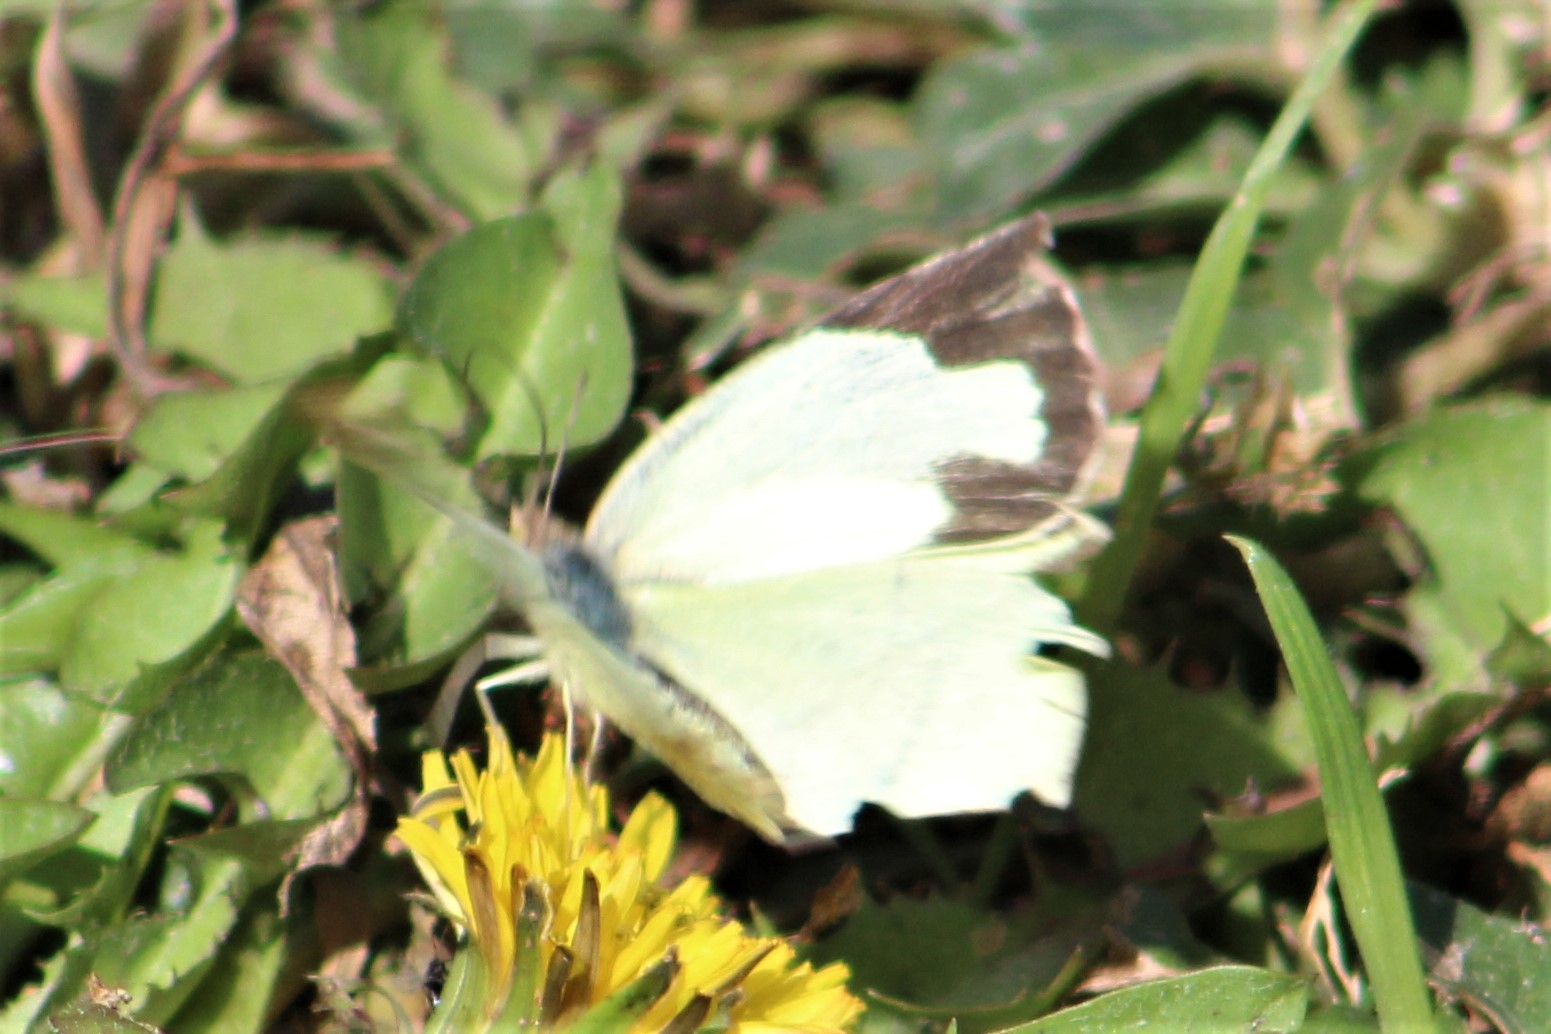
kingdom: Animalia
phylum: Arthropoda
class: Insecta
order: Lepidoptera
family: Pieridae
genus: Abaeis
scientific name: Abaeis mexicana
